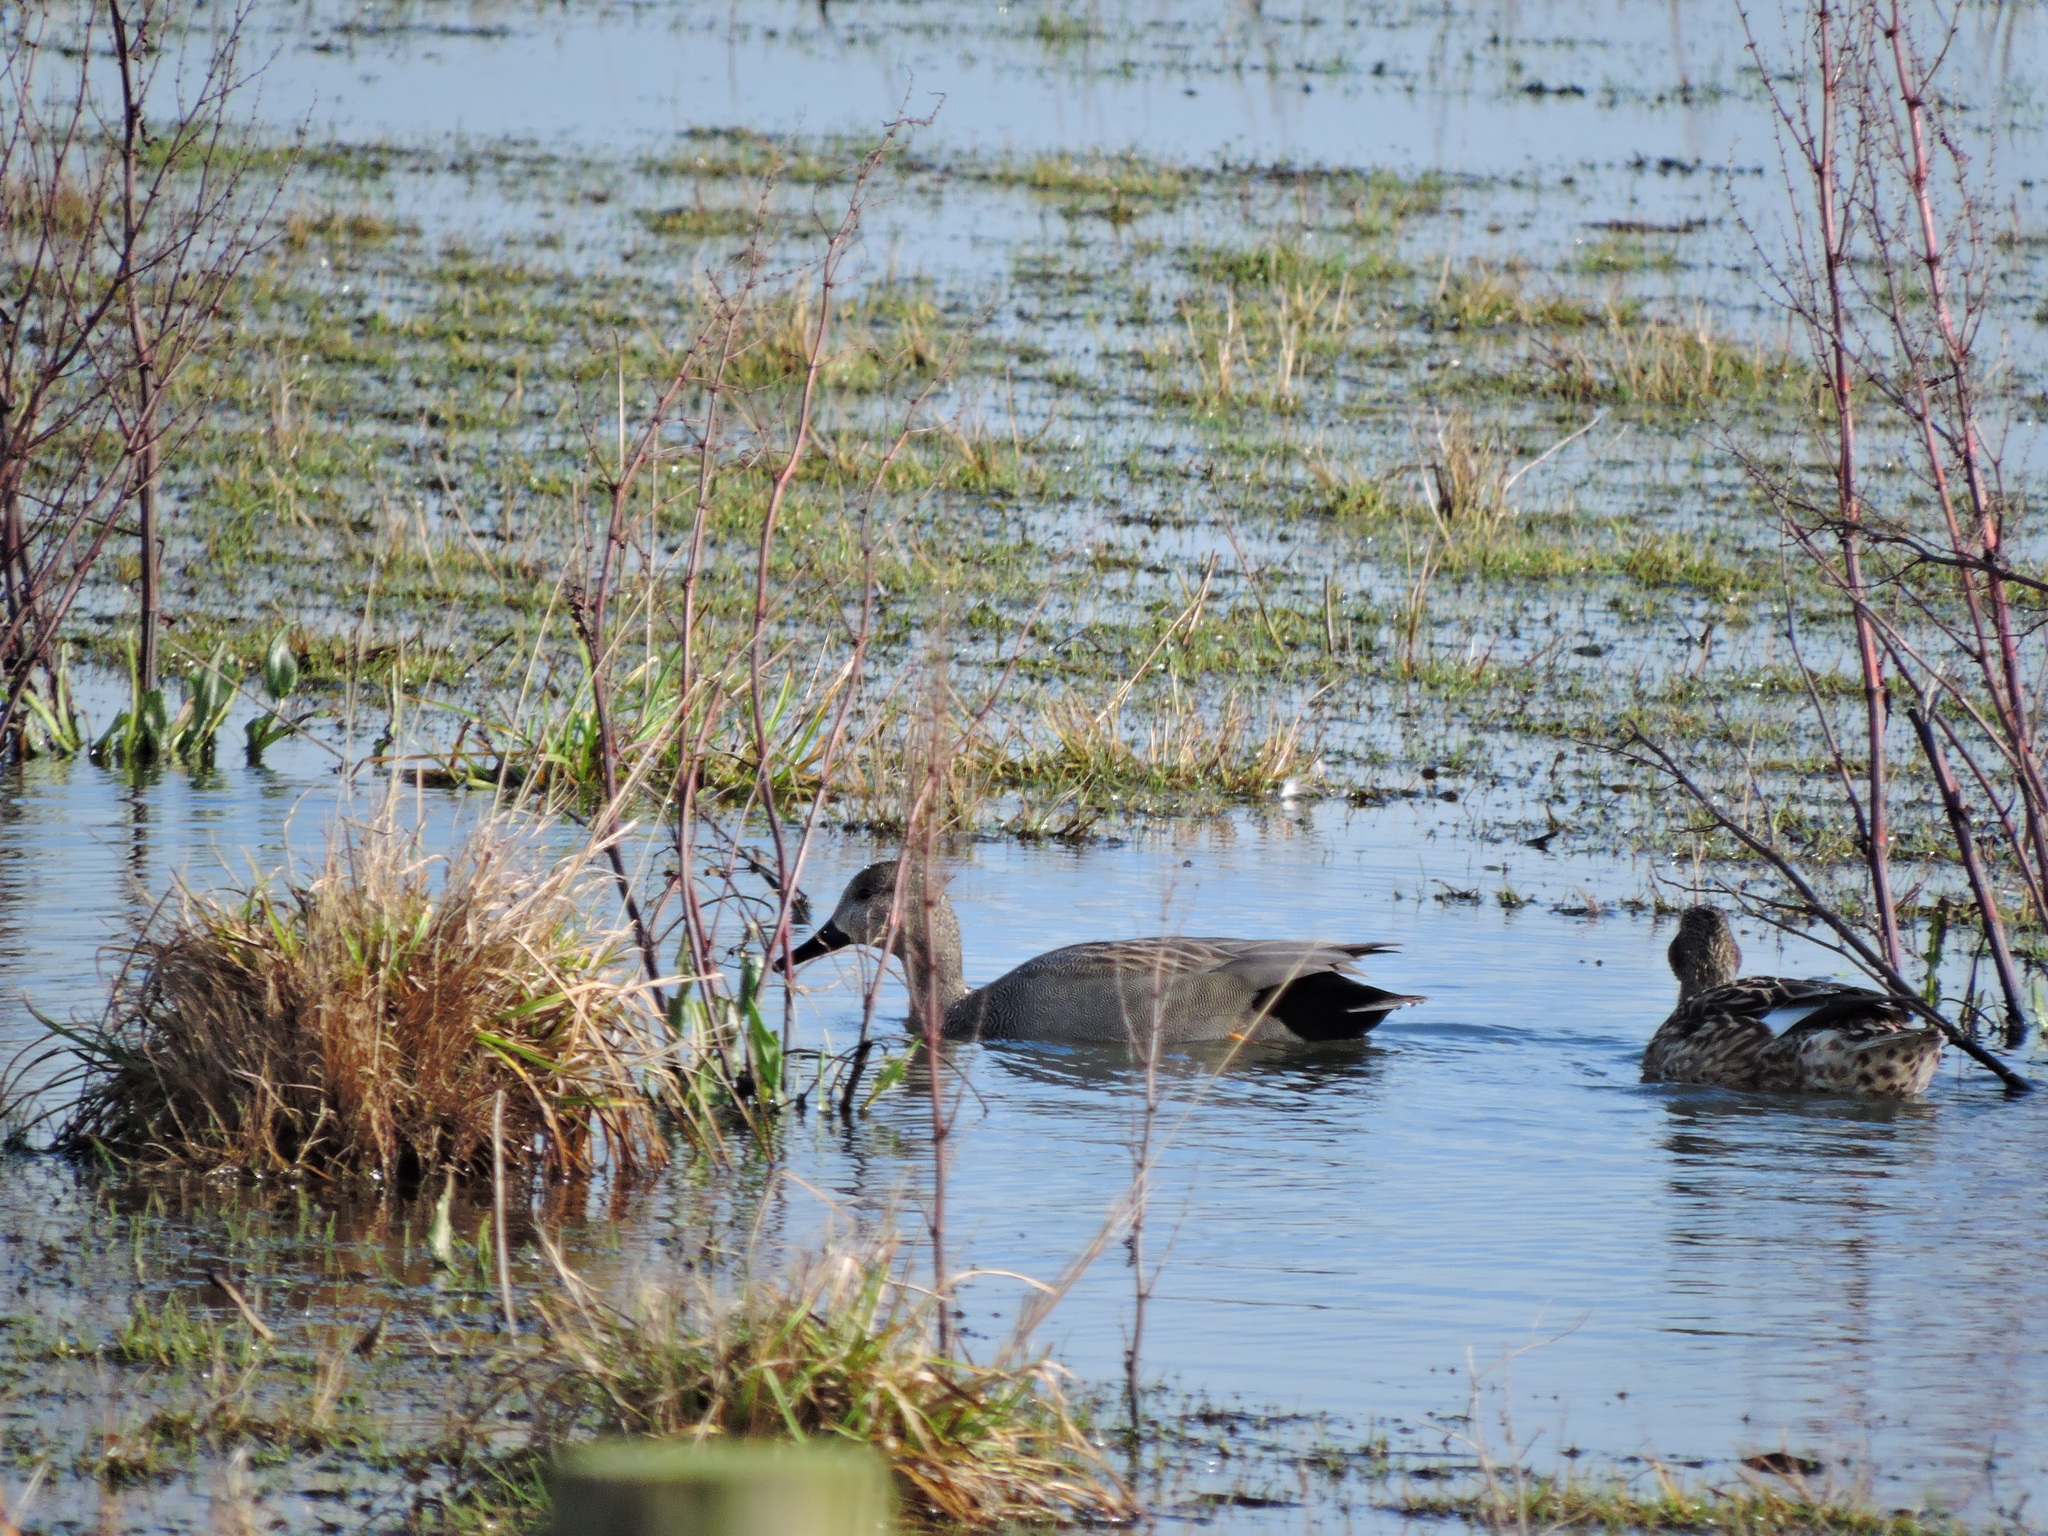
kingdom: Animalia
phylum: Chordata
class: Aves
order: Anseriformes
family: Anatidae
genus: Mareca
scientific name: Mareca strepera
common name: Gadwall
